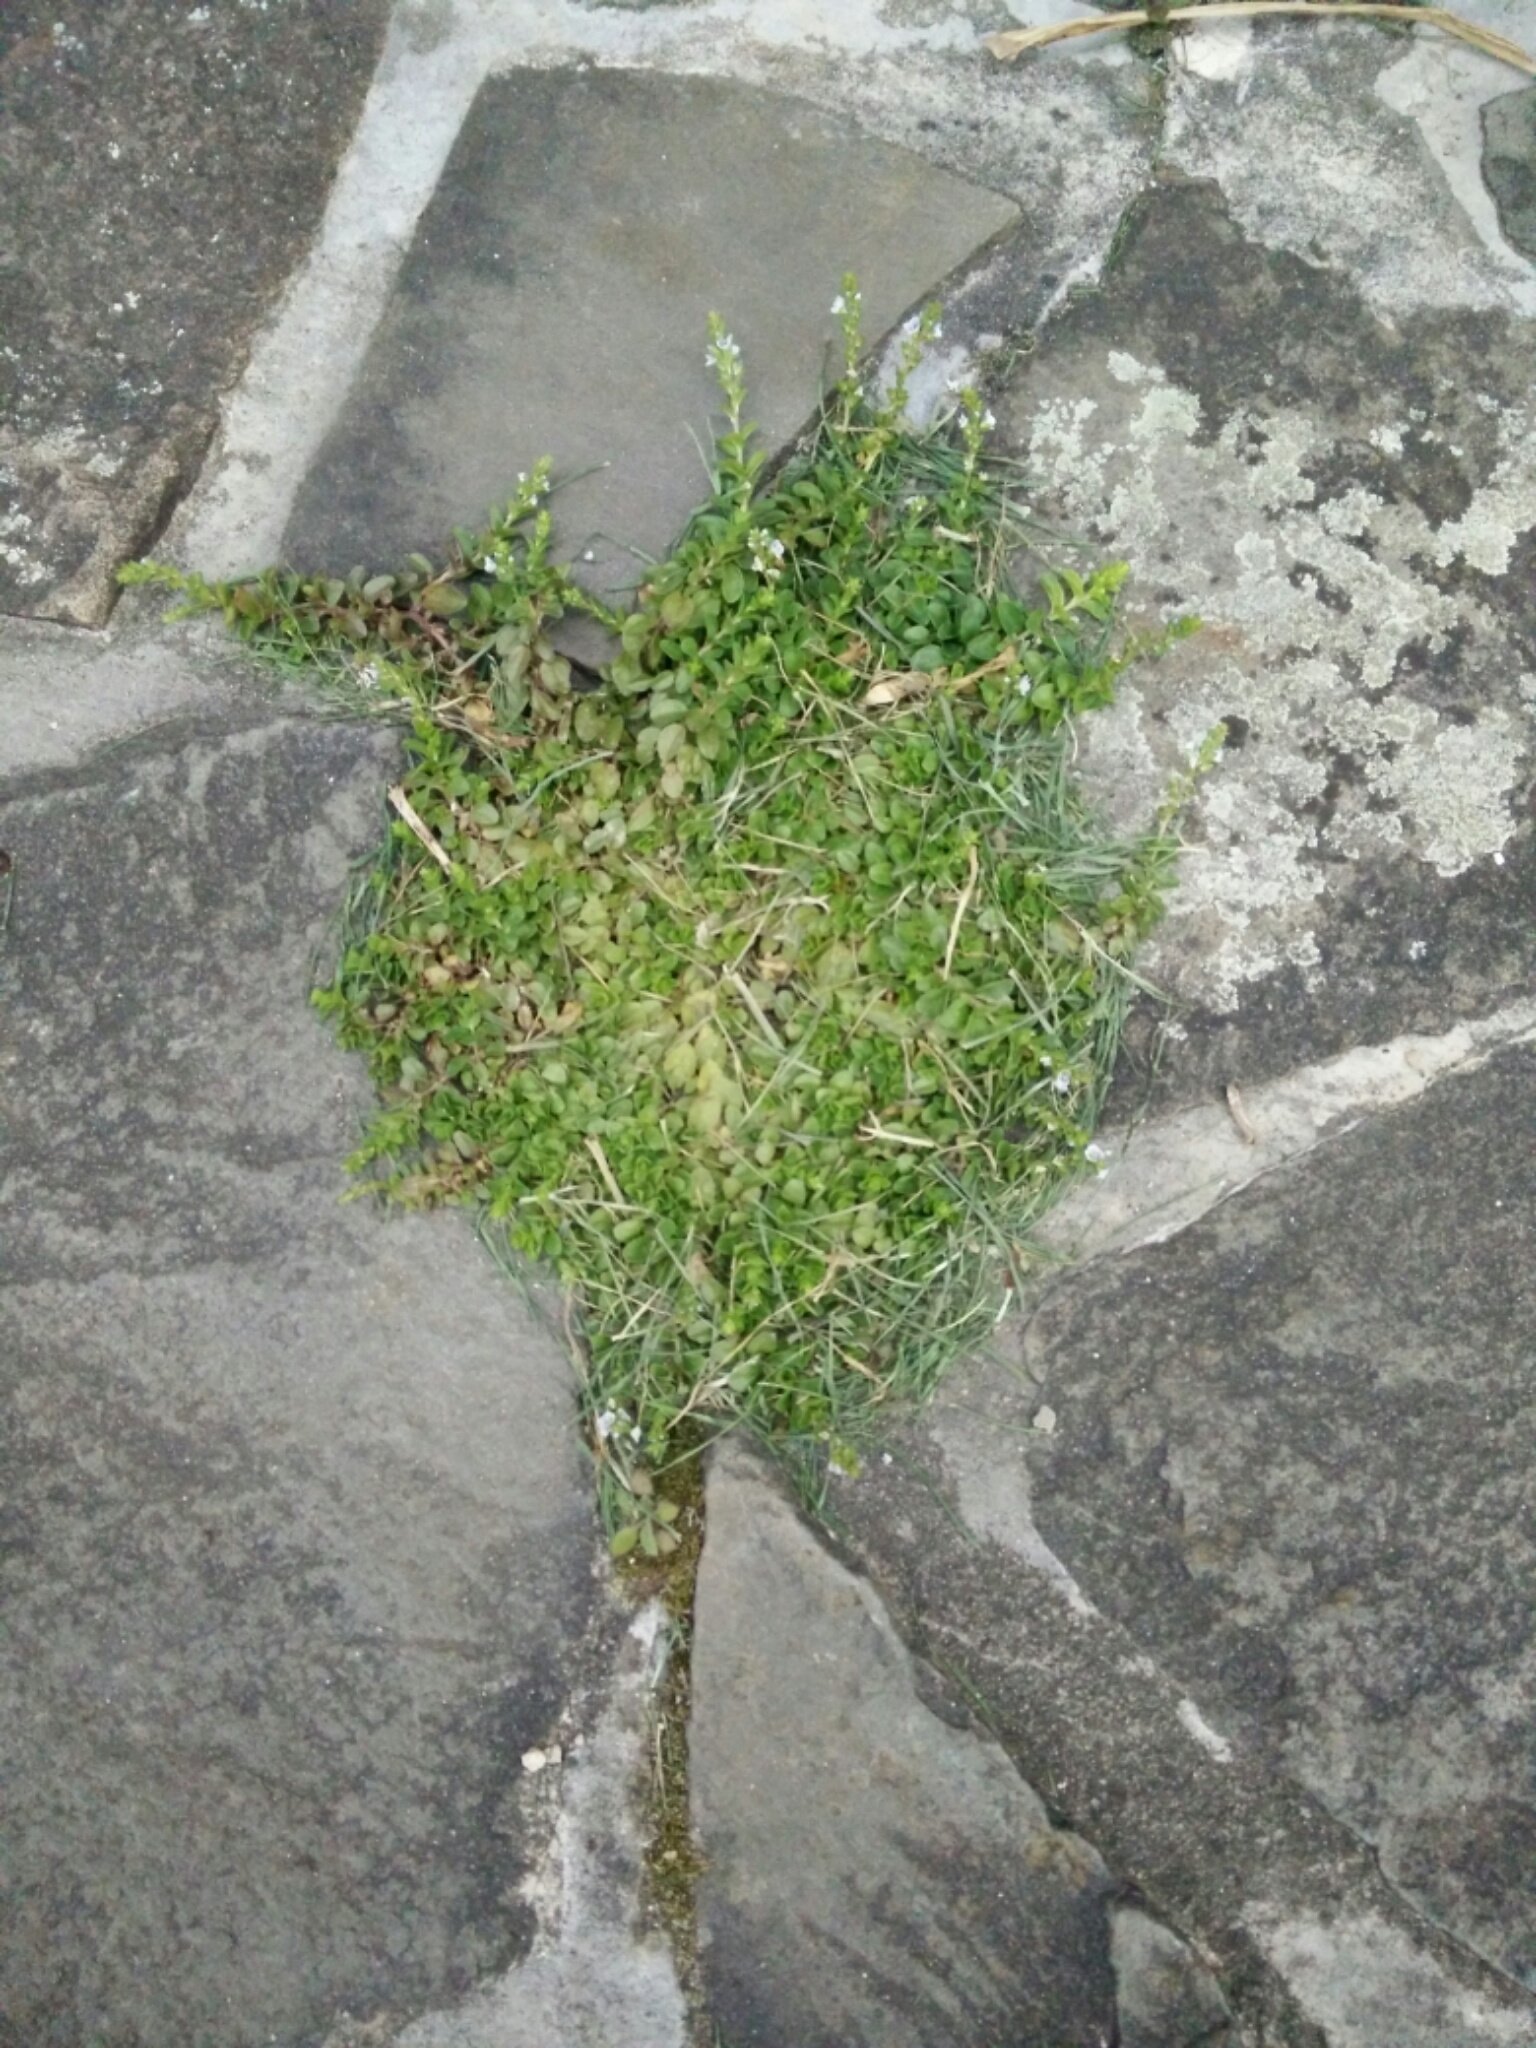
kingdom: Plantae
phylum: Tracheophyta
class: Magnoliopsida
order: Lamiales
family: Plantaginaceae
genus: Veronica
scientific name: Veronica serpyllifolia
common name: Thyme-leaved speedwell
